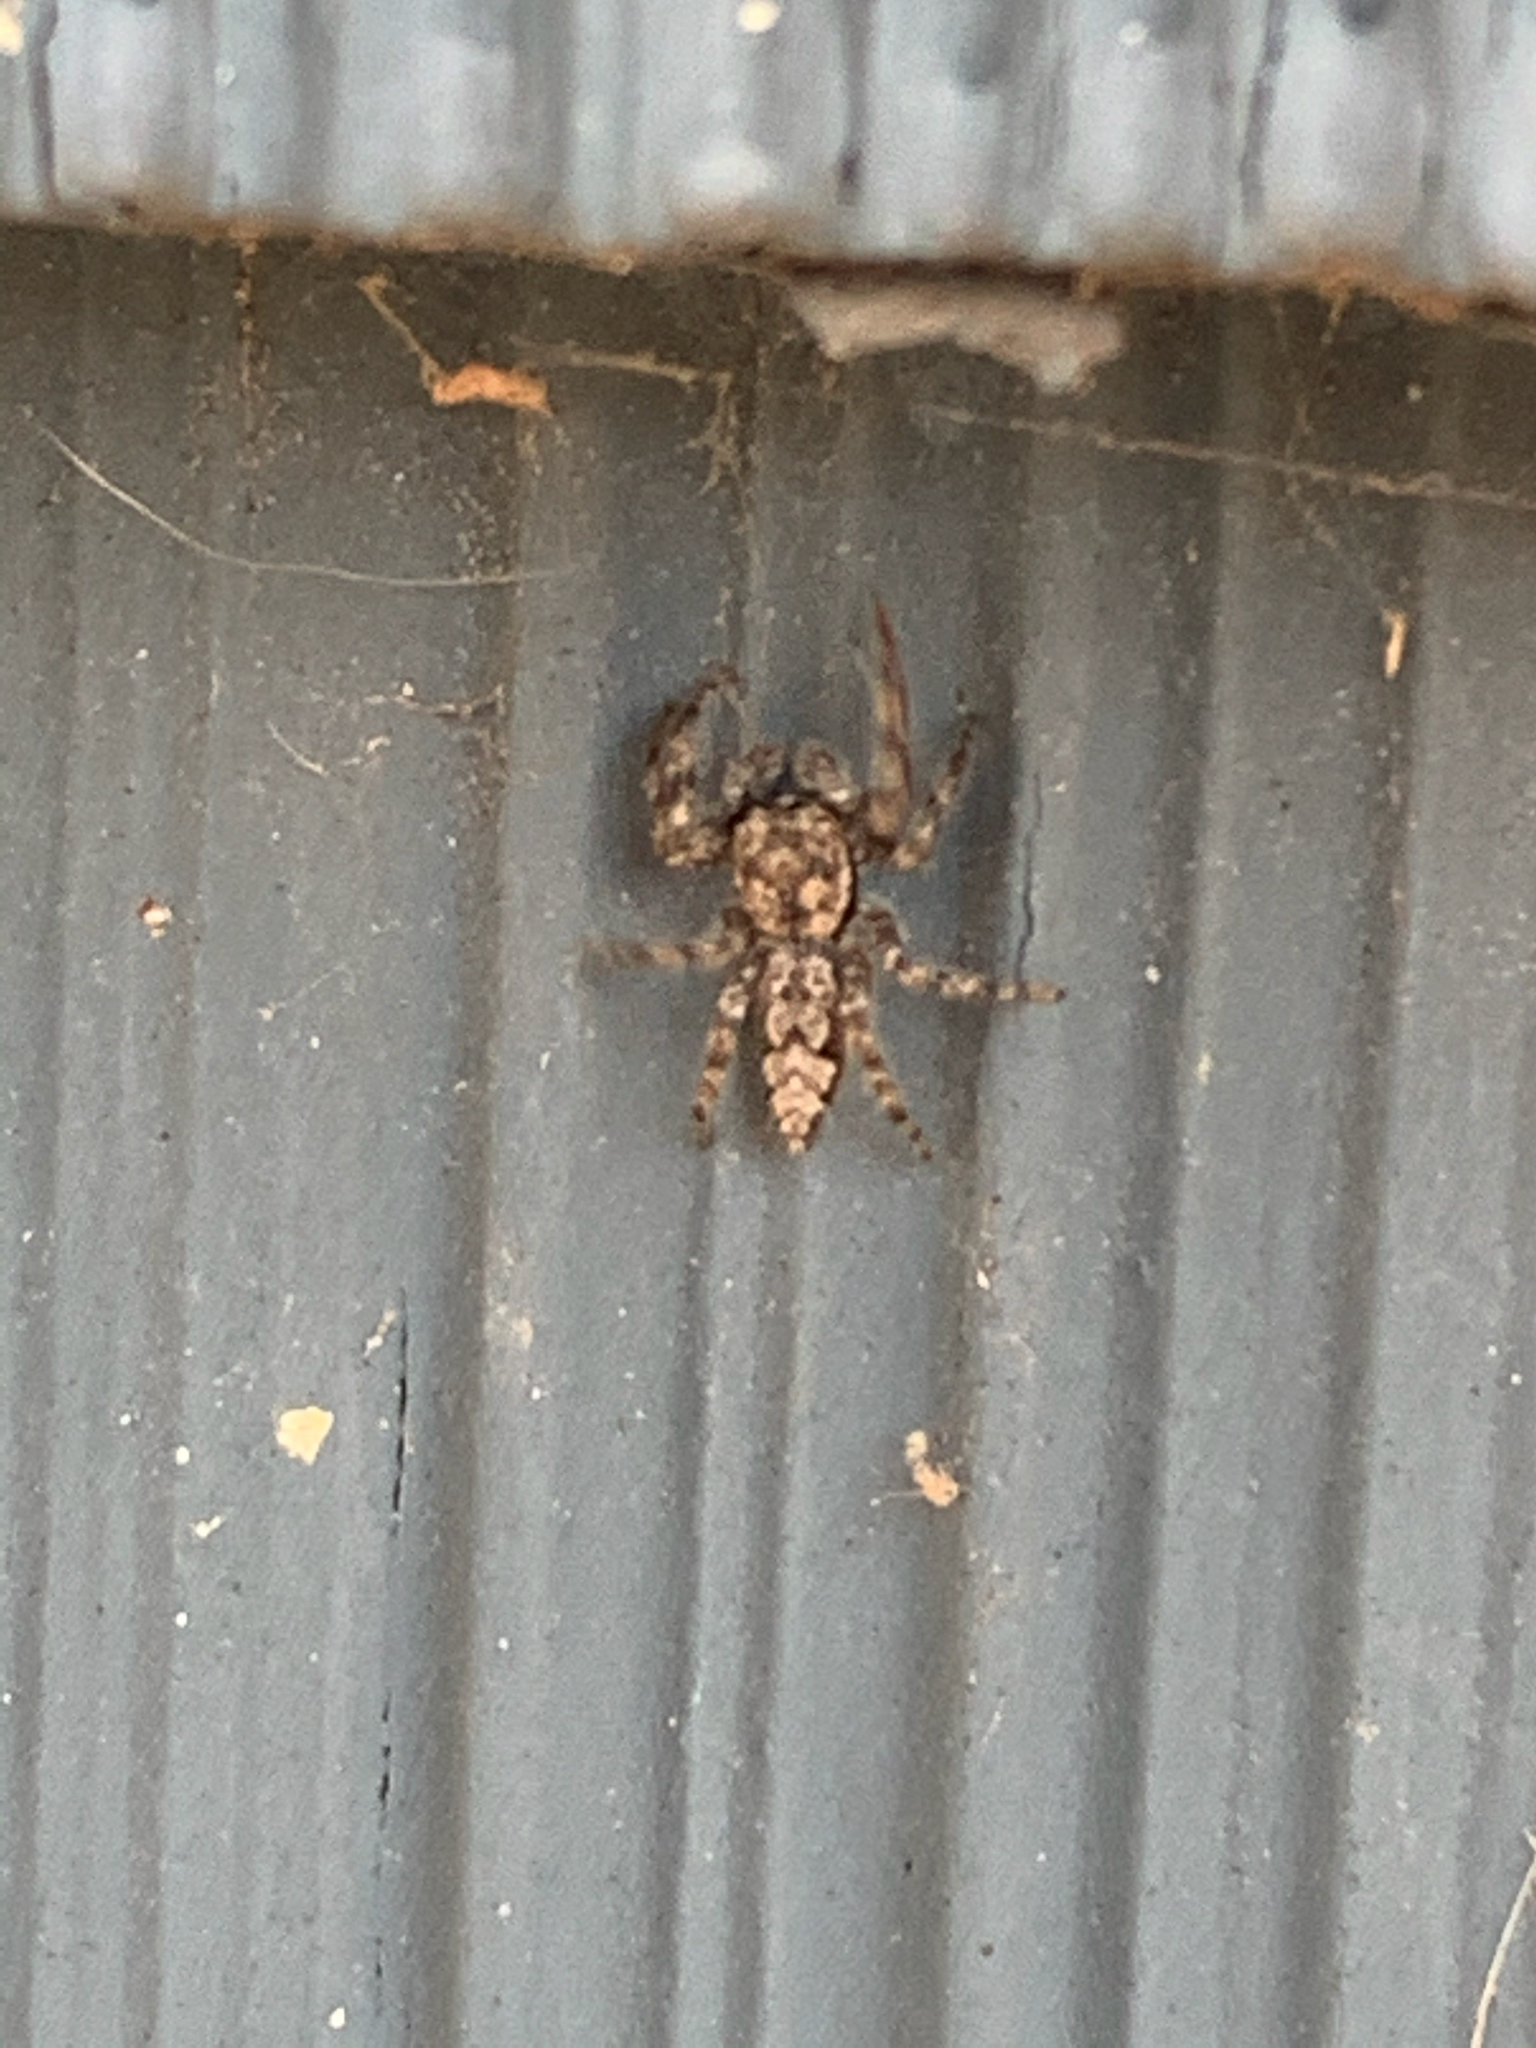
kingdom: Animalia
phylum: Arthropoda
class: Arachnida
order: Araneae
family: Salticidae
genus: Platycryptus
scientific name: Platycryptus undatus
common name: Tan jumping spider
